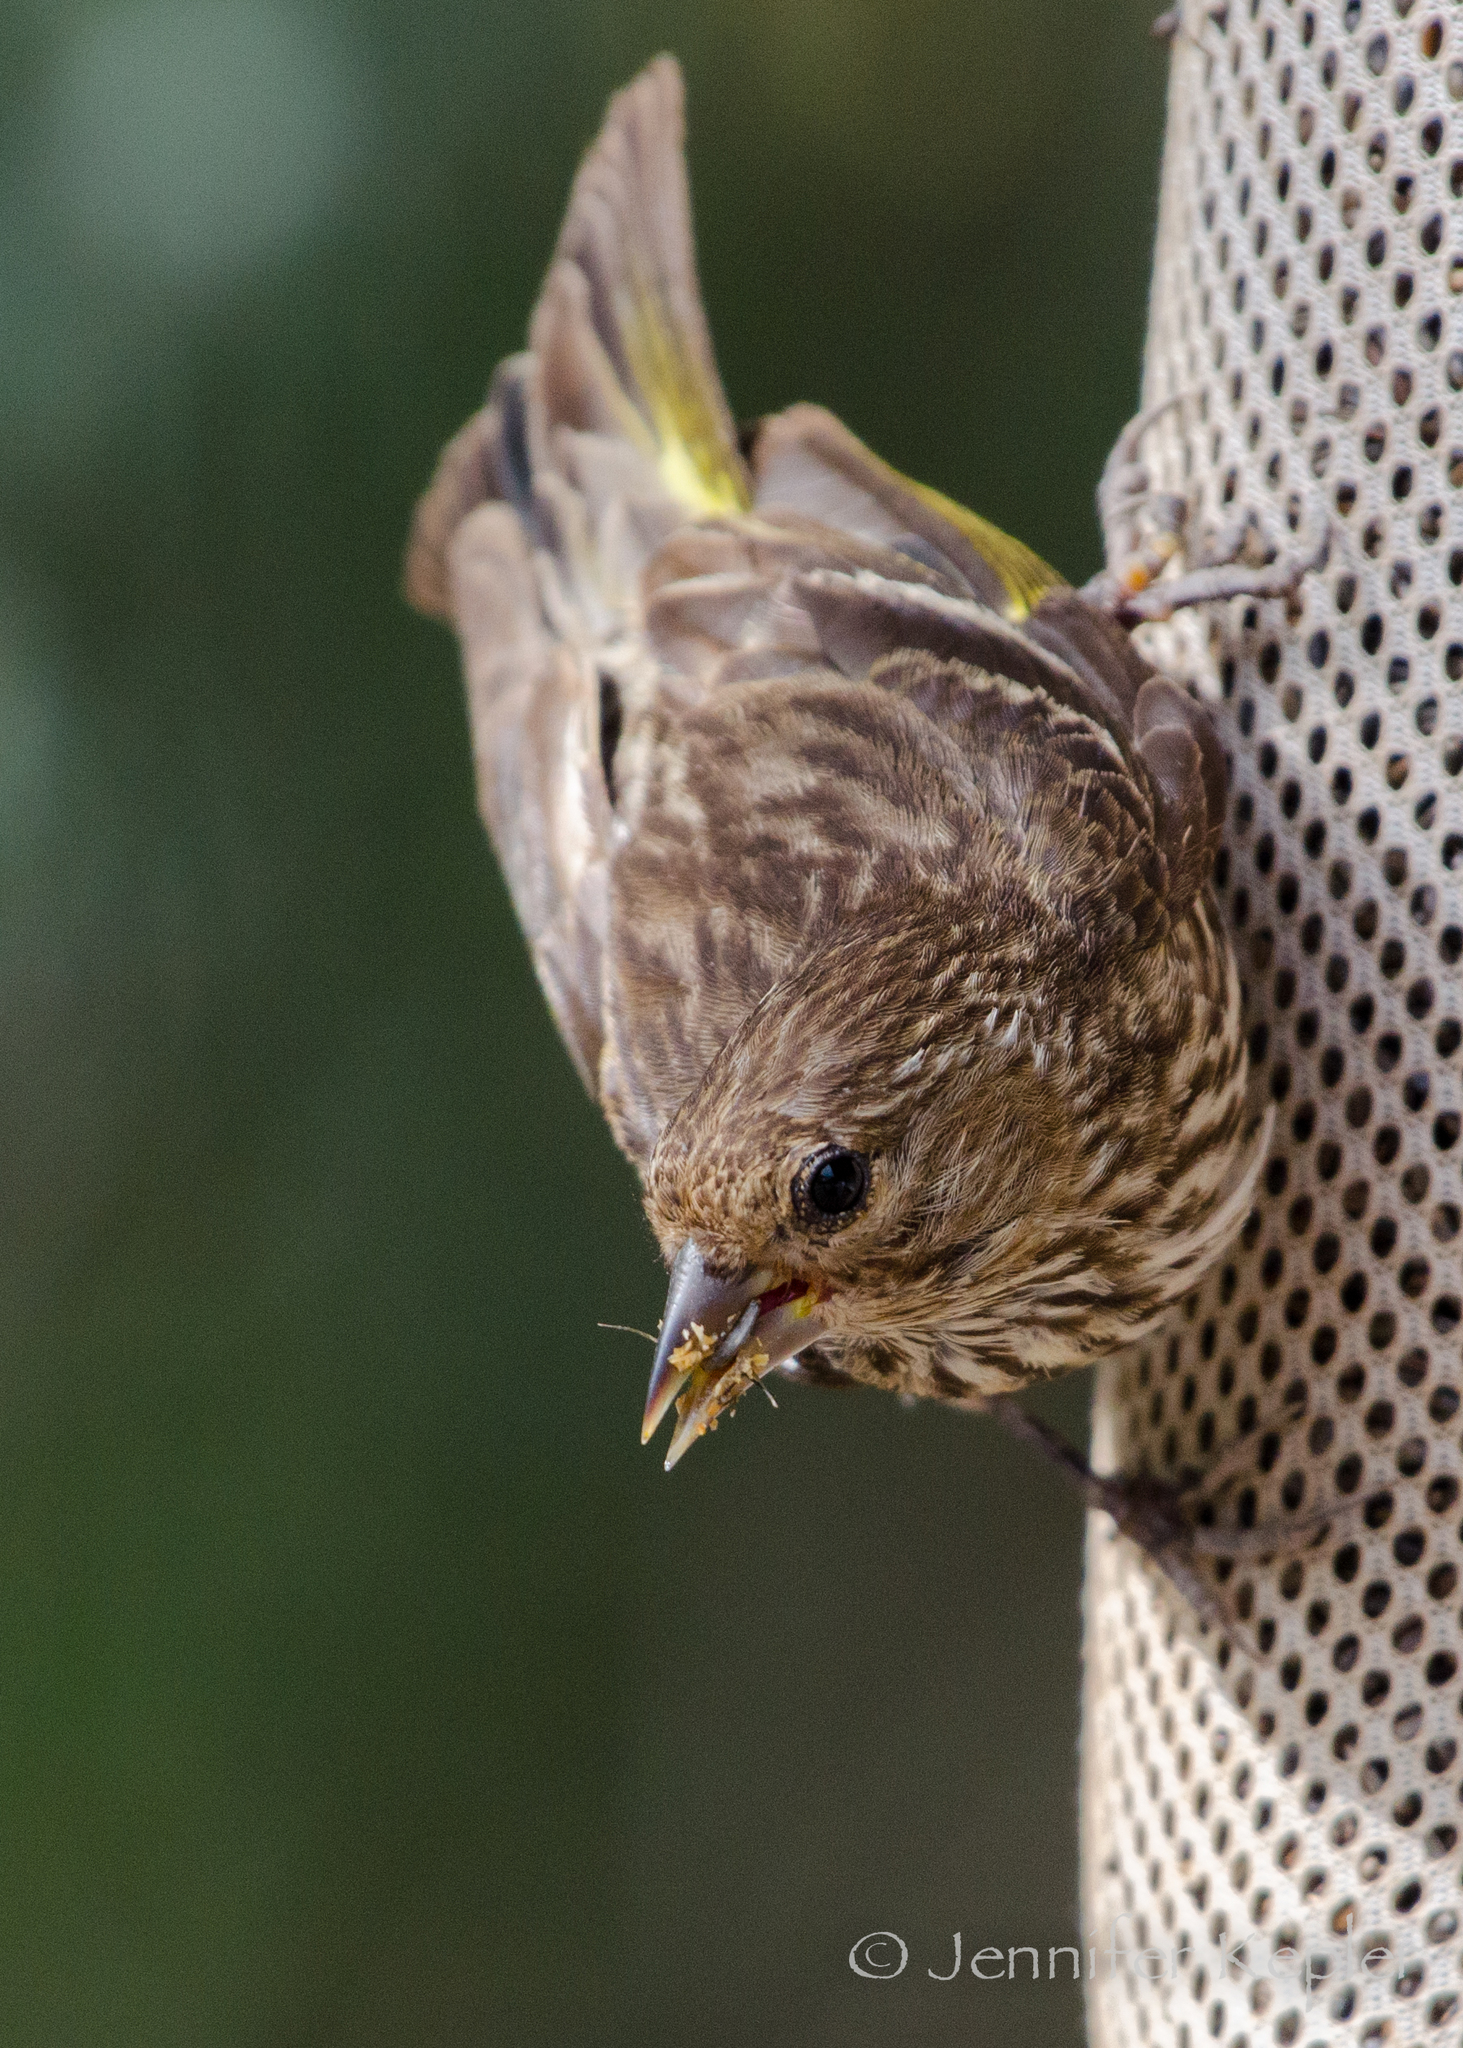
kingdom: Animalia
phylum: Chordata
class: Aves
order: Passeriformes
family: Fringillidae
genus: Spinus
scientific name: Spinus pinus
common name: Pine siskin
